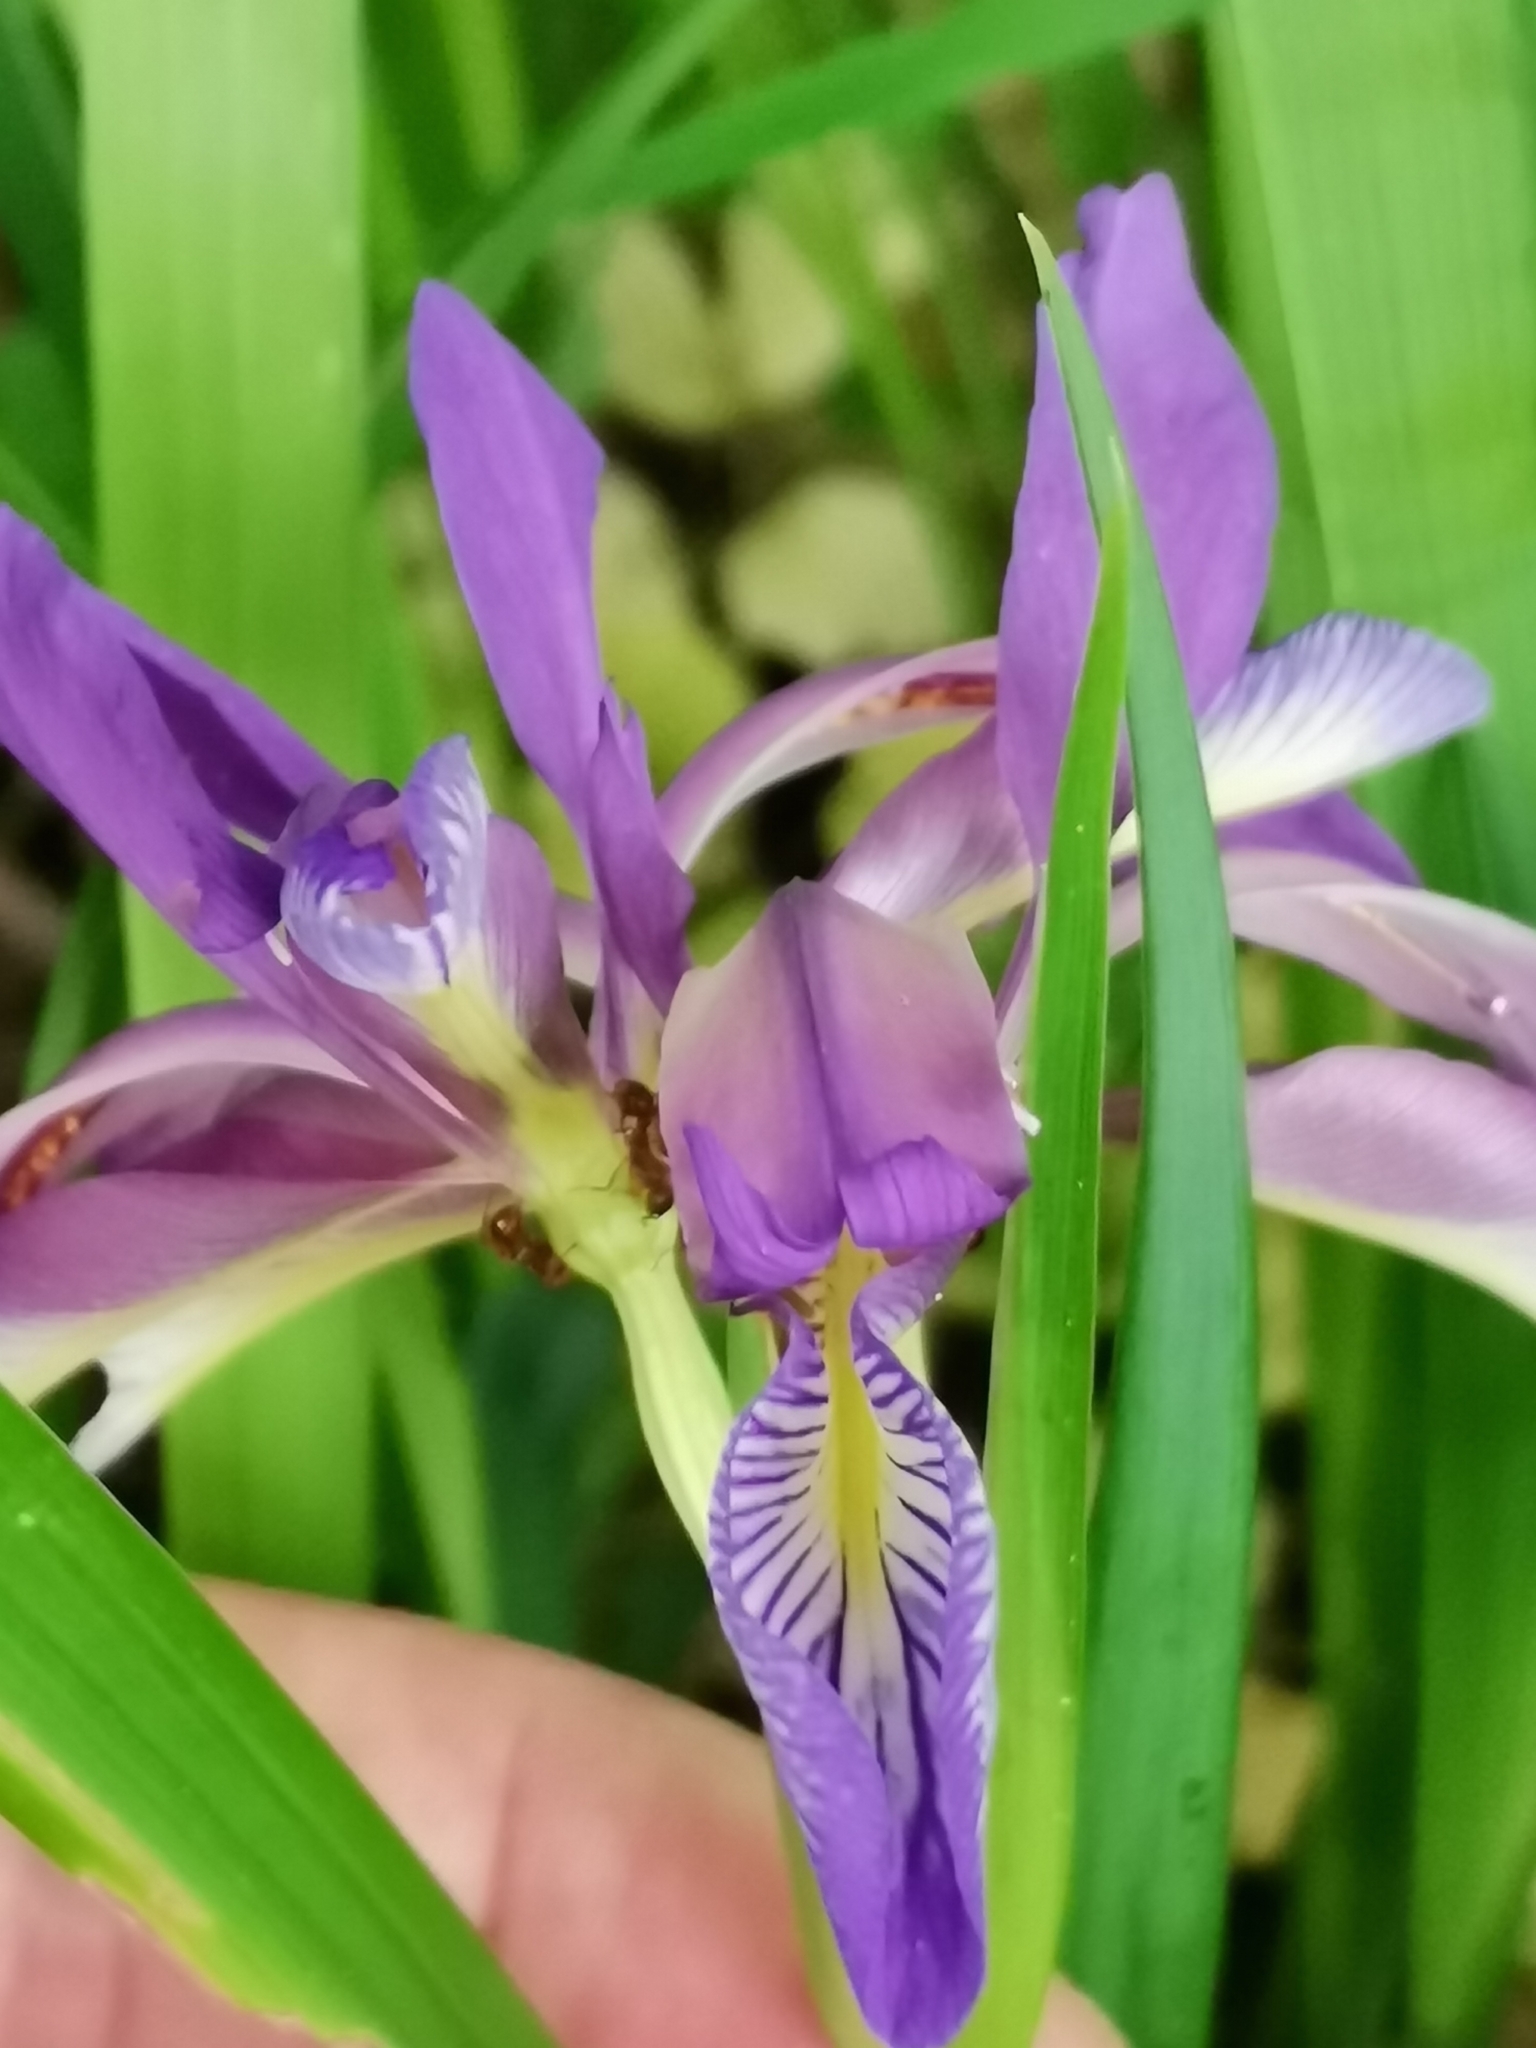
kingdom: Plantae
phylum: Tracheophyta
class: Liliopsida
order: Asparagales
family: Iridaceae
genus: Iris
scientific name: Iris graminea
